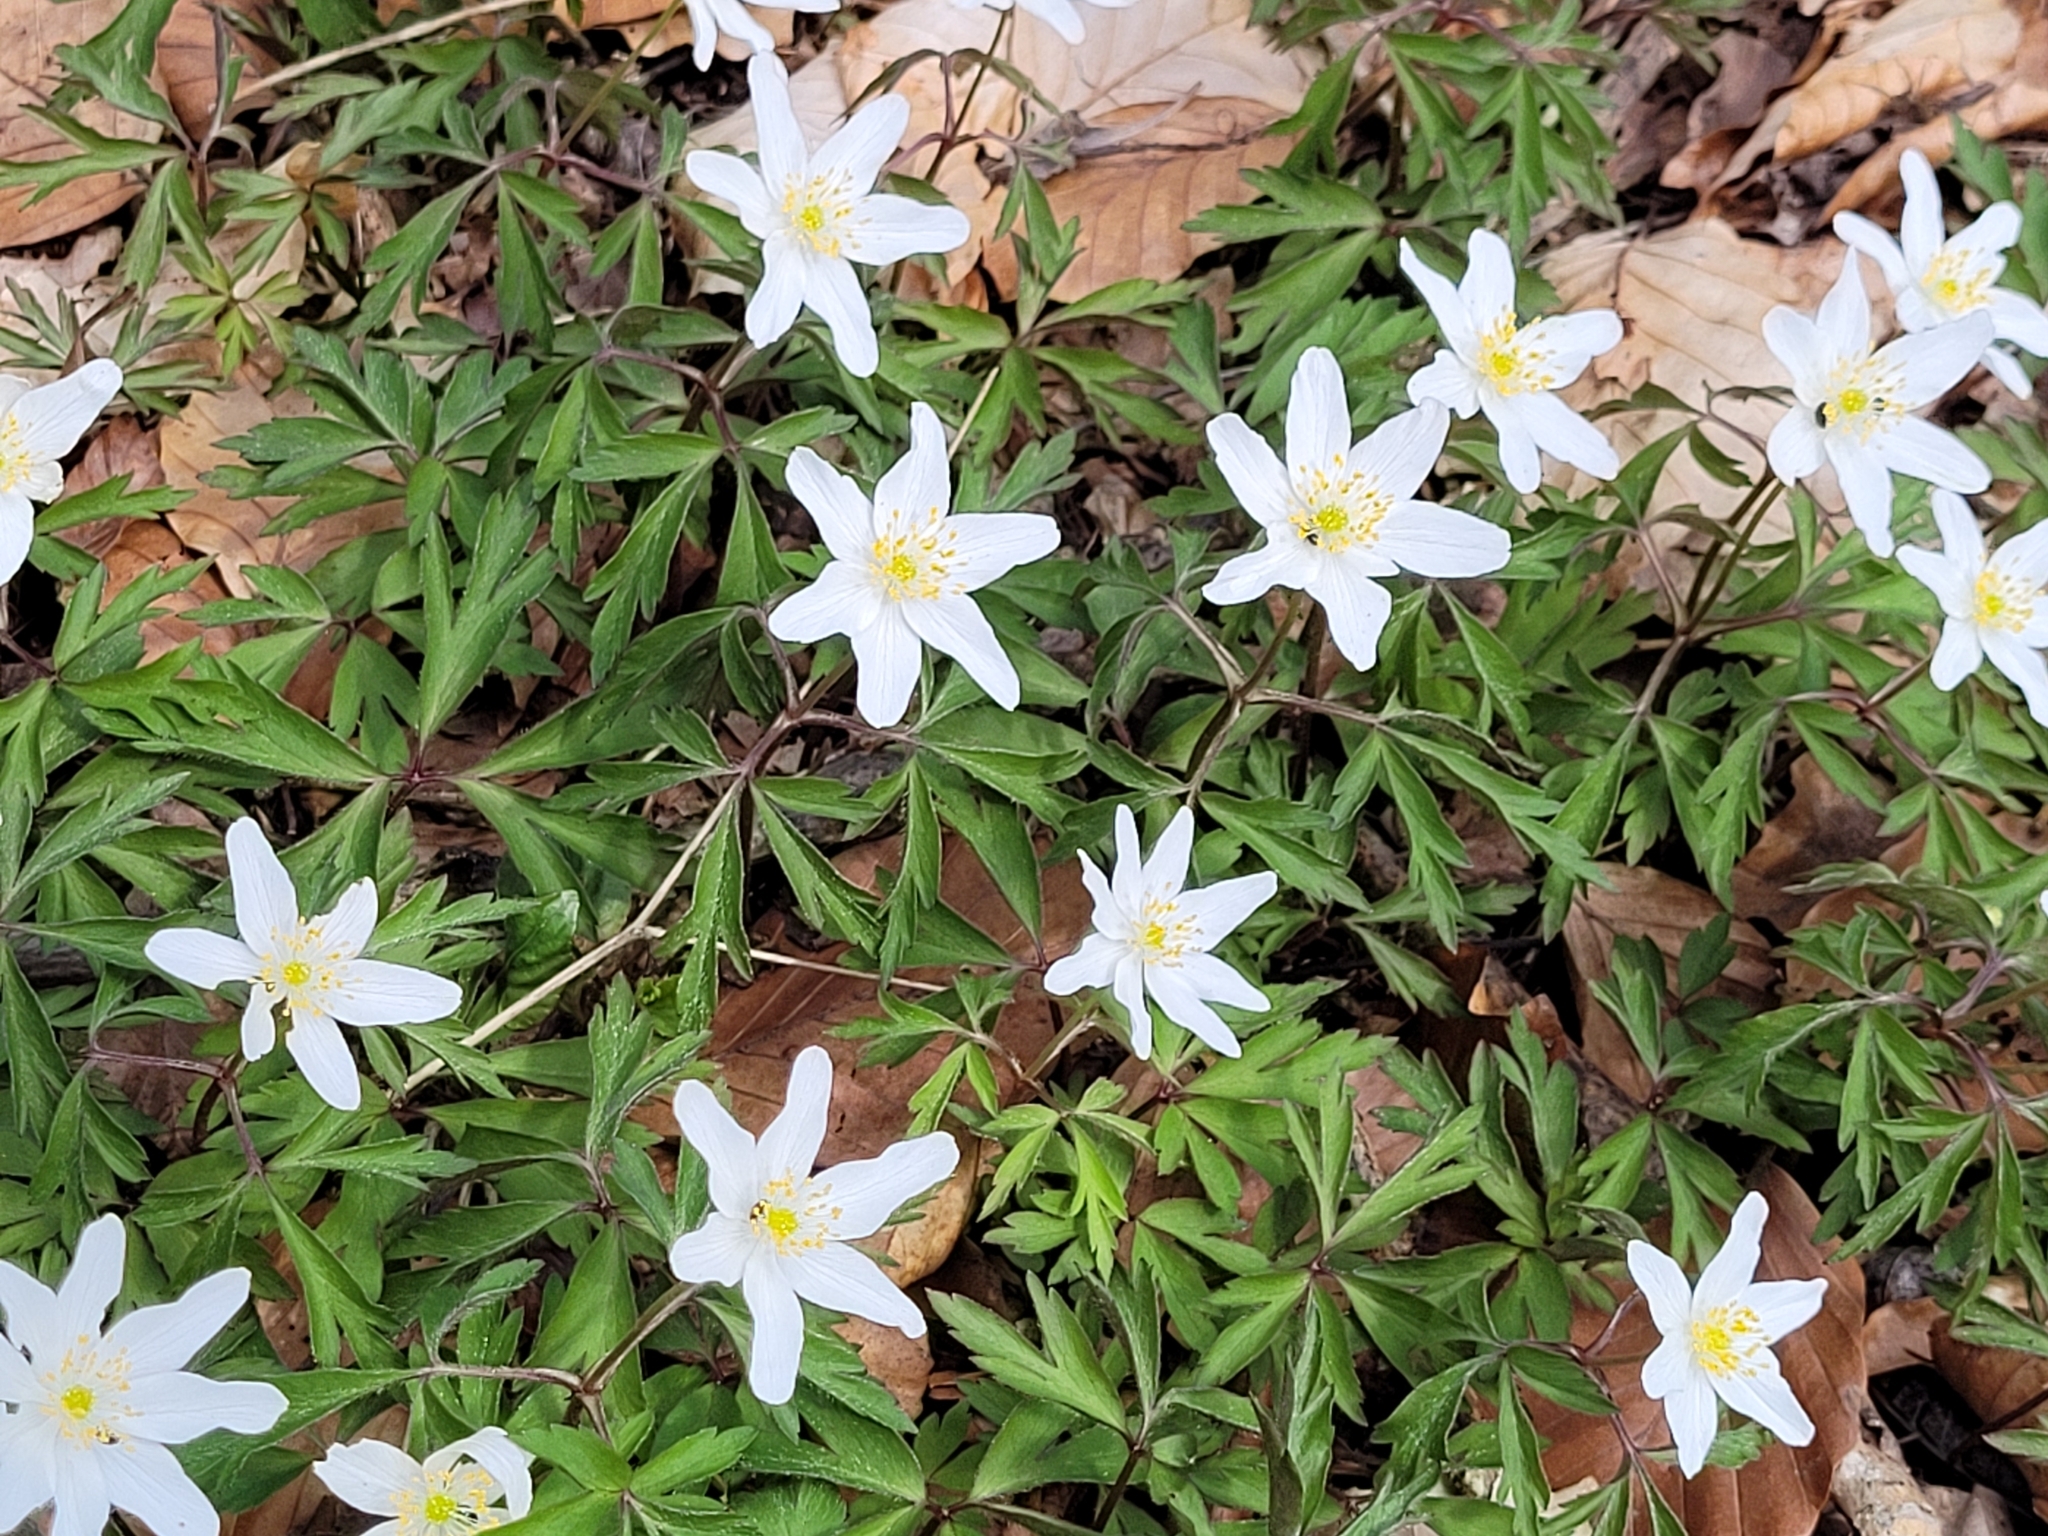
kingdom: Plantae
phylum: Tracheophyta
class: Magnoliopsida
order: Ranunculales
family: Ranunculaceae
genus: Anemone
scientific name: Anemone nemorosa
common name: Wood anemone
